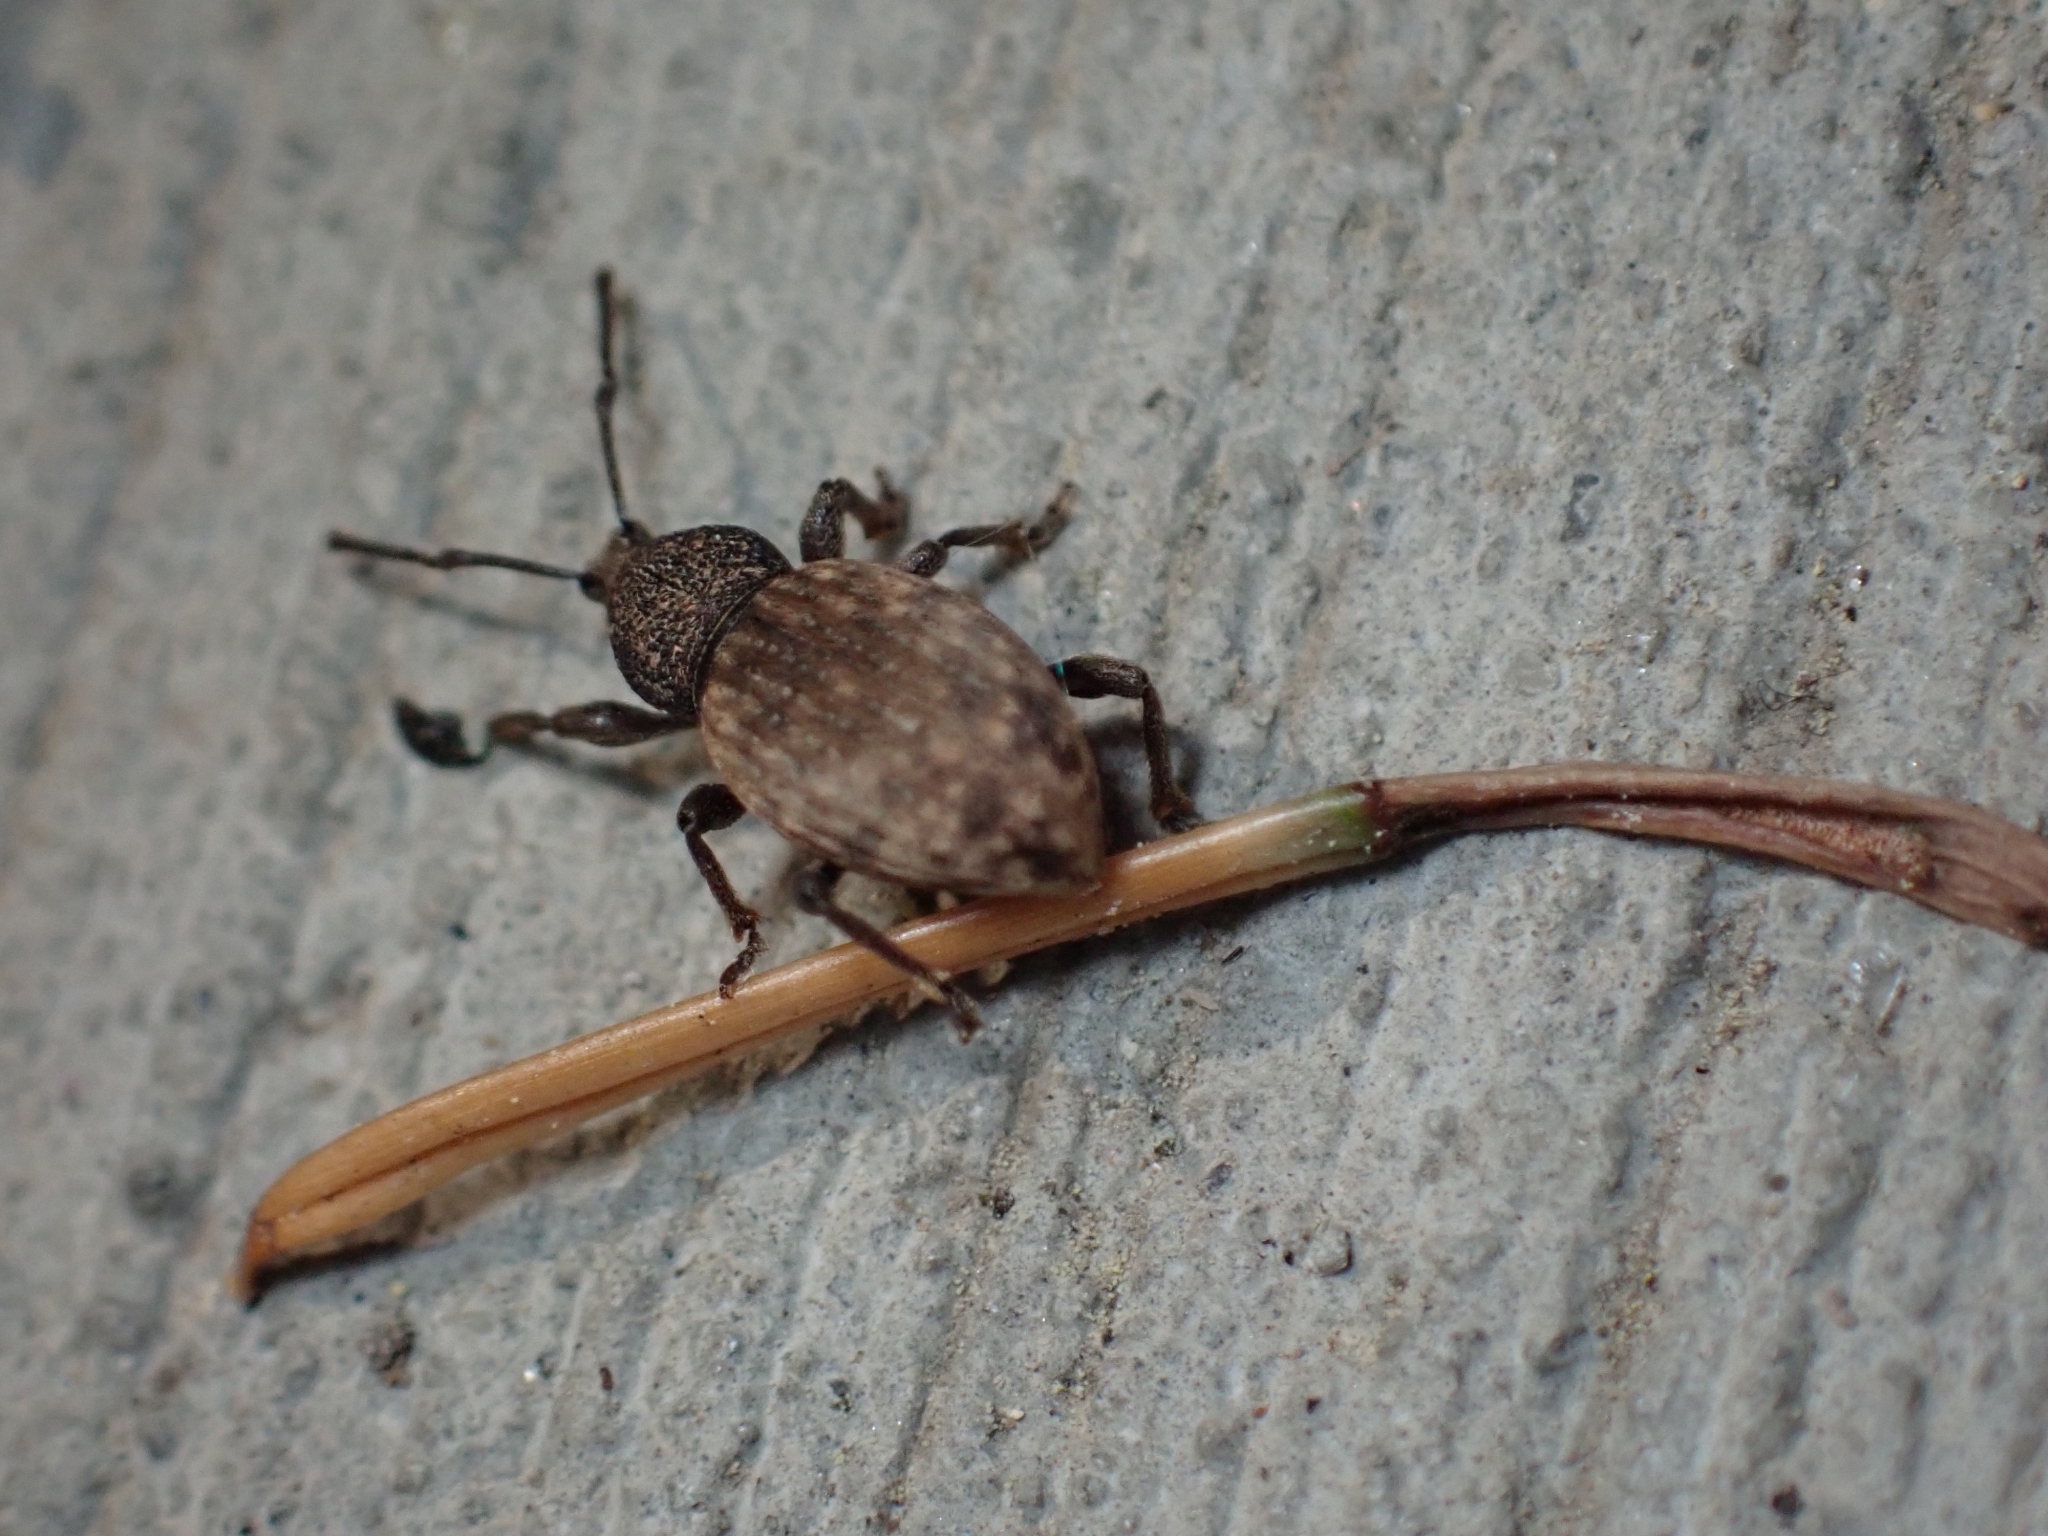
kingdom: Animalia
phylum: Arthropoda
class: Insecta
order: Coleoptera
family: Curculionidae
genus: Otiorhynchus
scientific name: Otiorhynchus raucus
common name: Weevil
